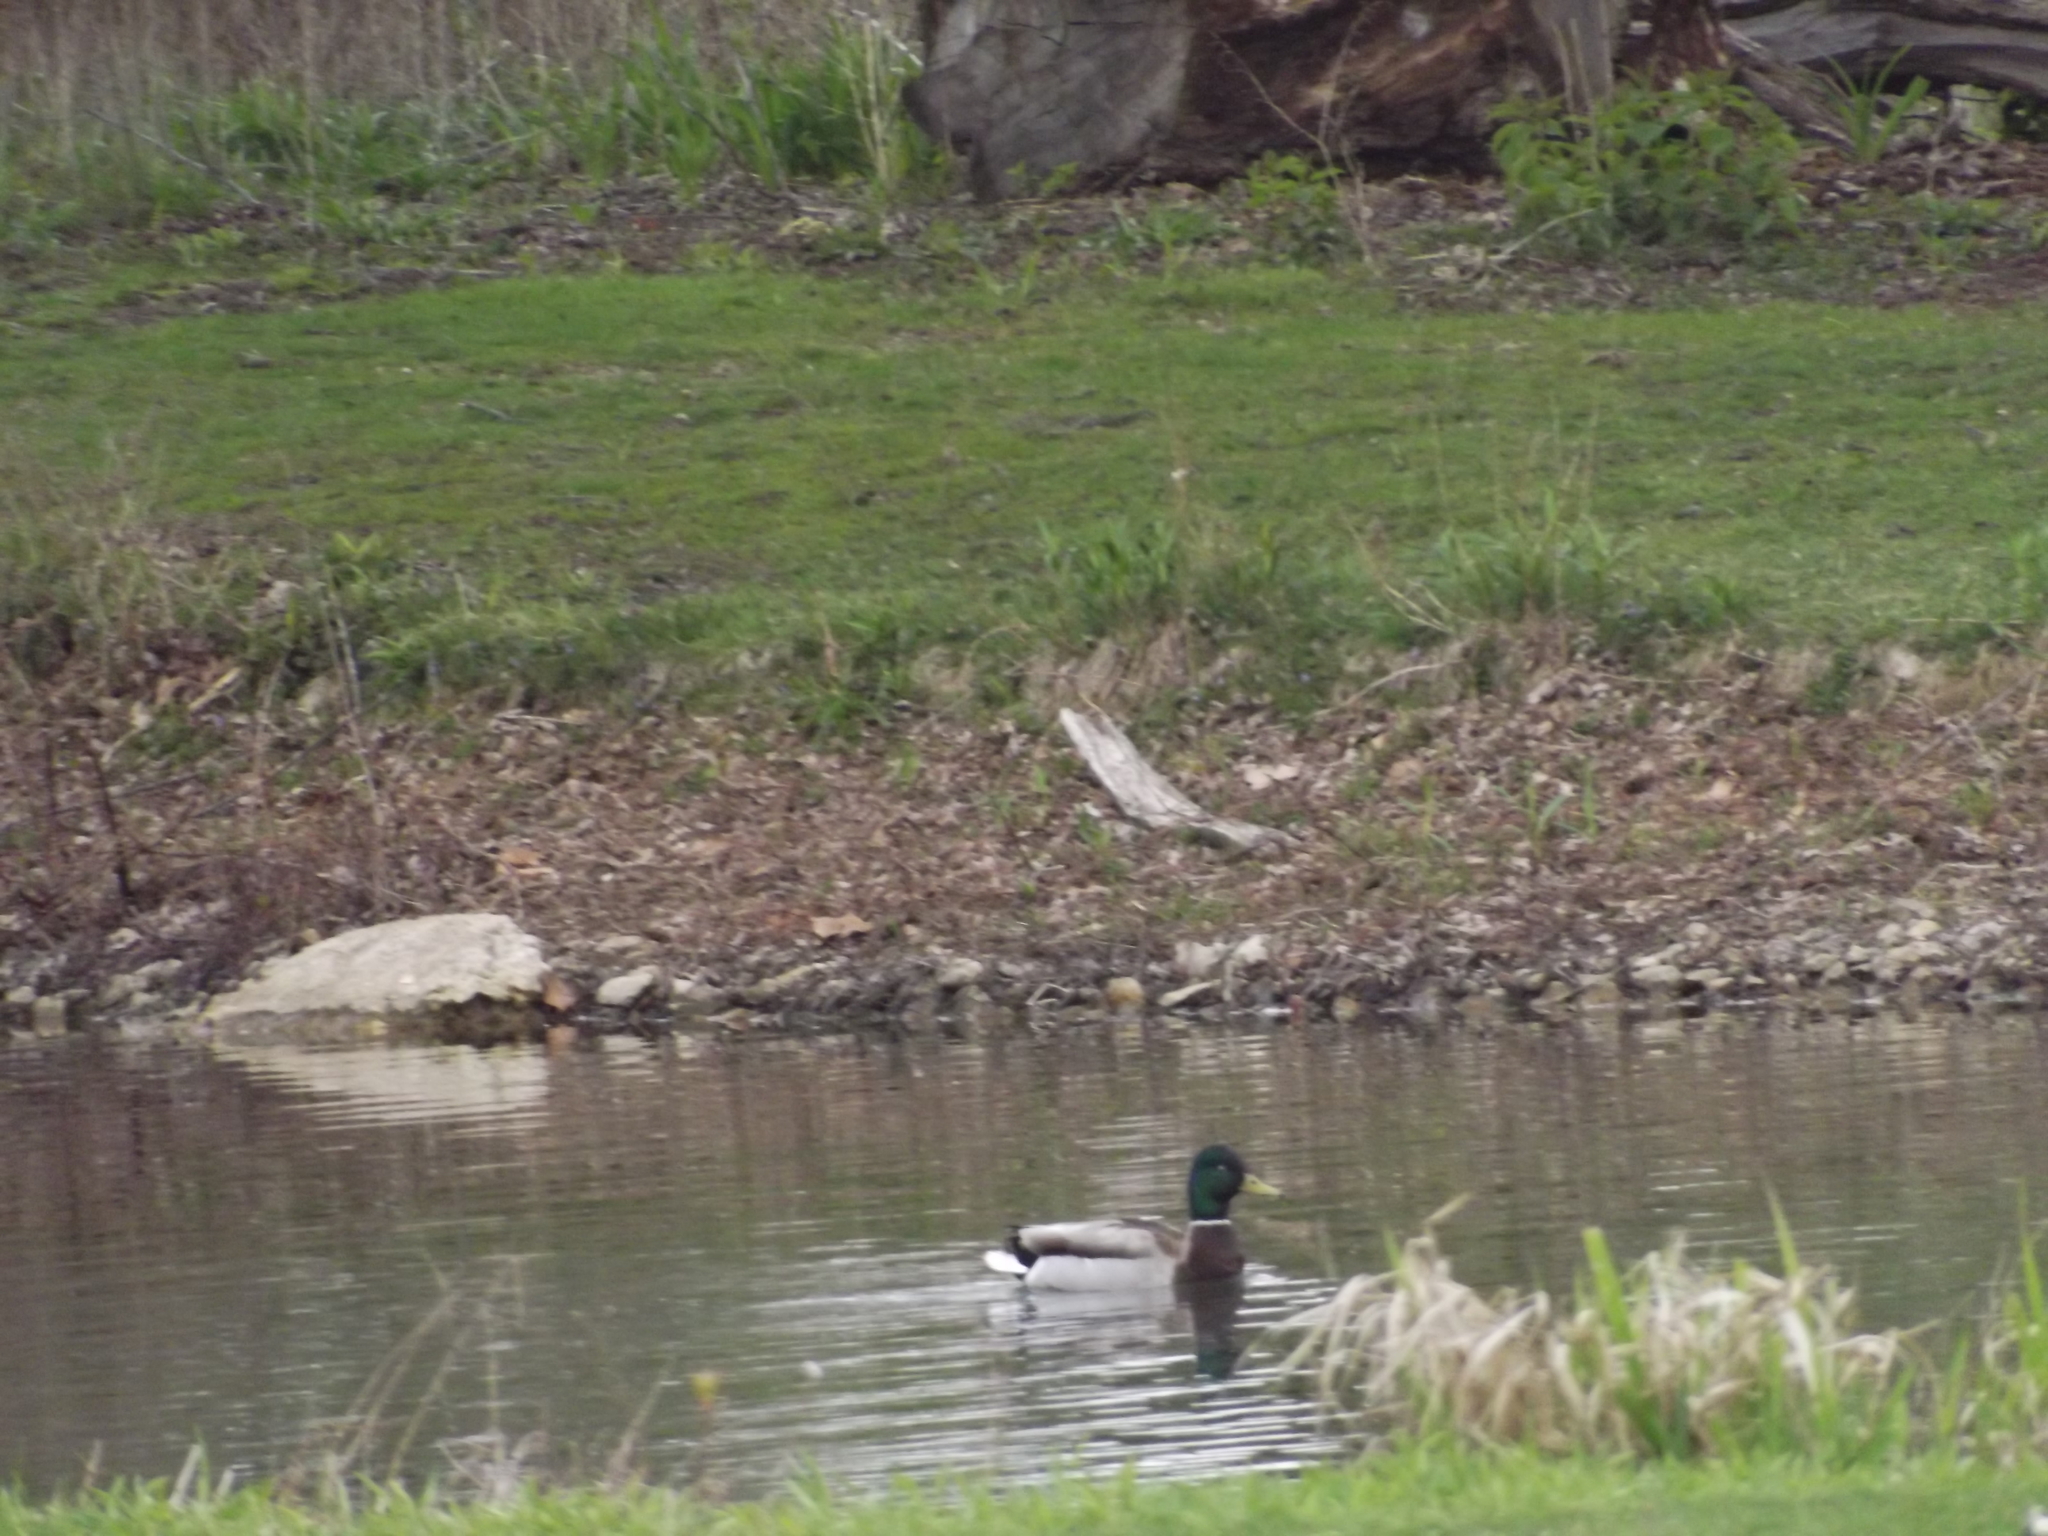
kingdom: Animalia
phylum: Chordata
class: Aves
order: Anseriformes
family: Anatidae
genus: Anas
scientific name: Anas platyrhynchos
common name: Mallard
